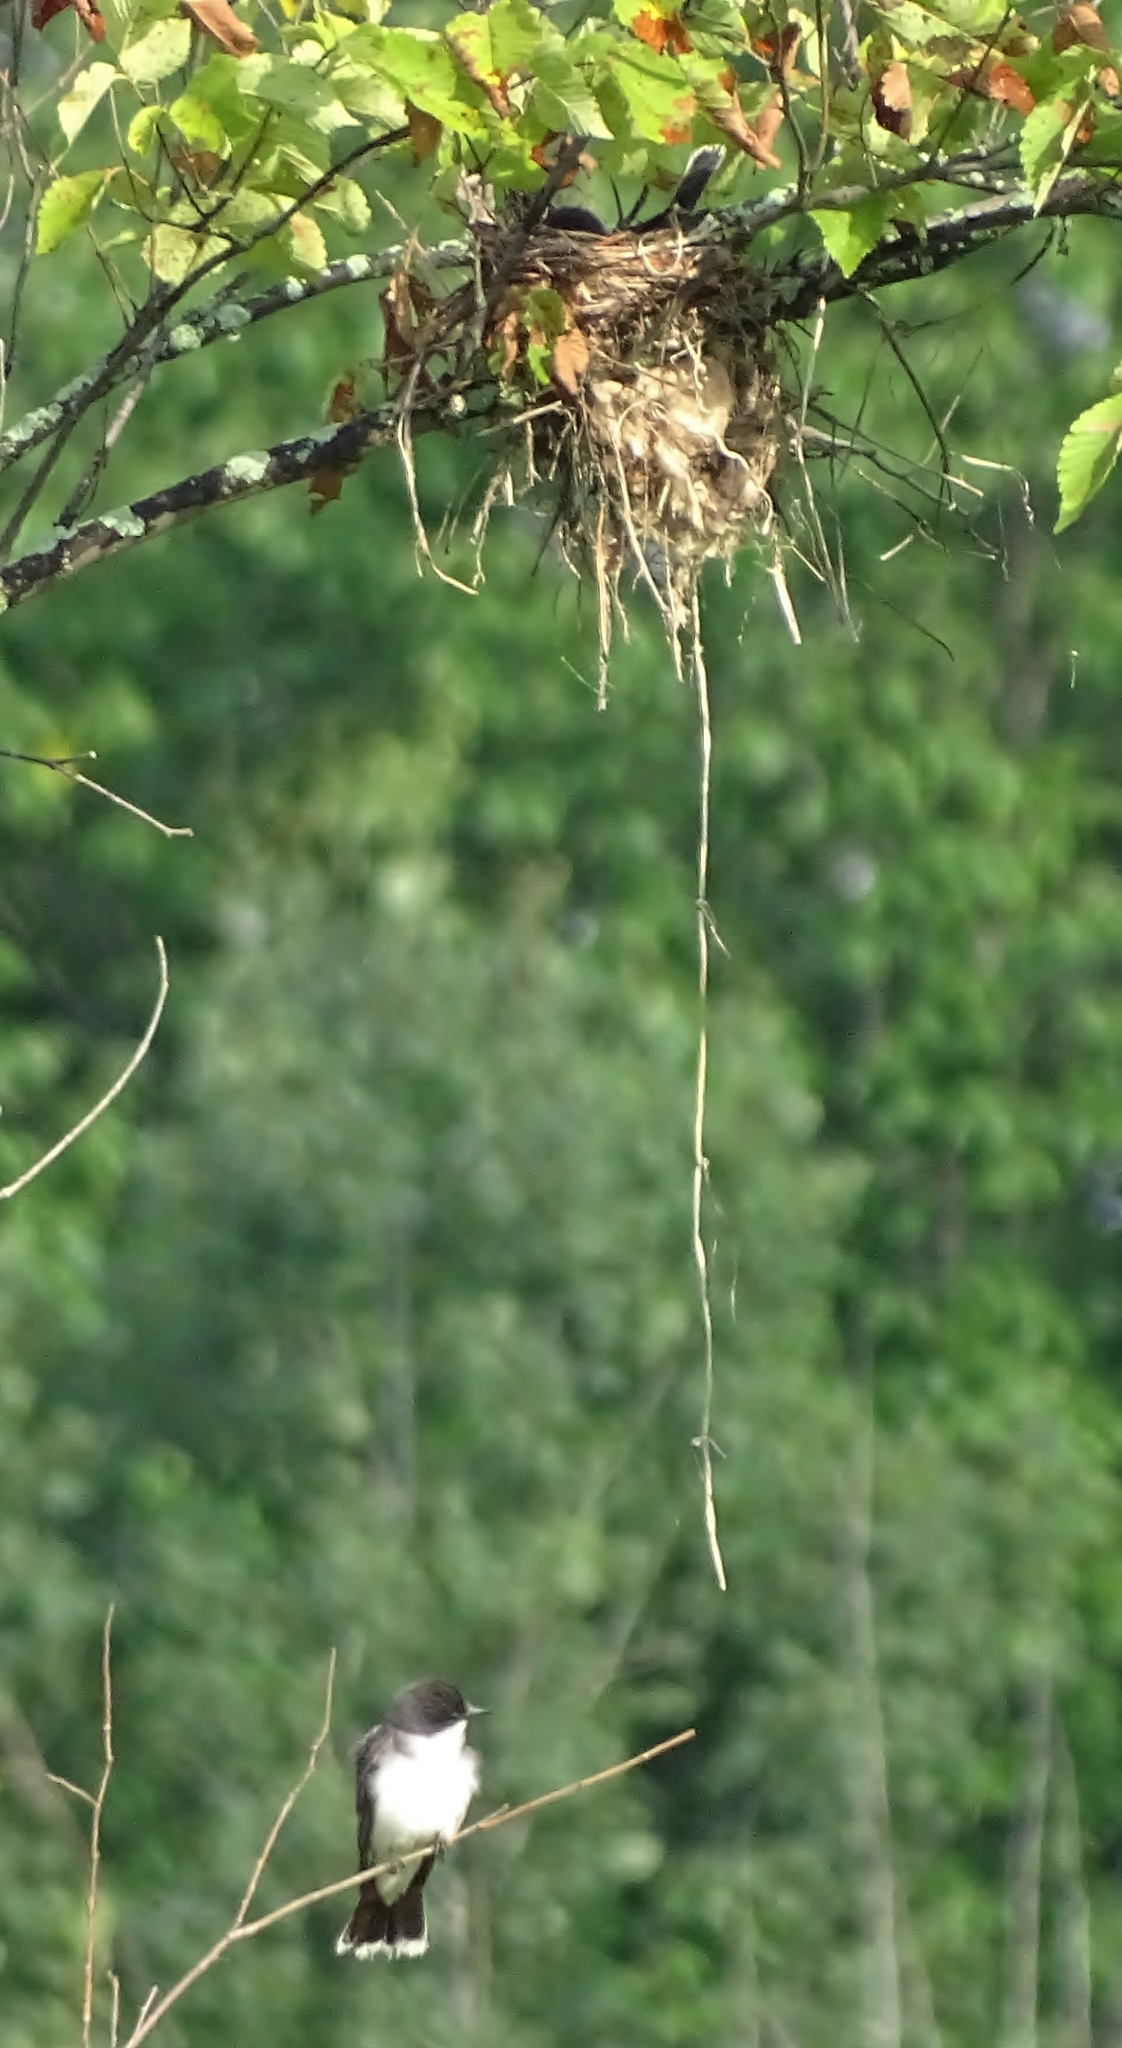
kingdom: Animalia
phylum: Chordata
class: Aves
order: Passeriformes
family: Tyrannidae
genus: Tyrannus
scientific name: Tyrannus tyrannus
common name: Eastern kingbird
